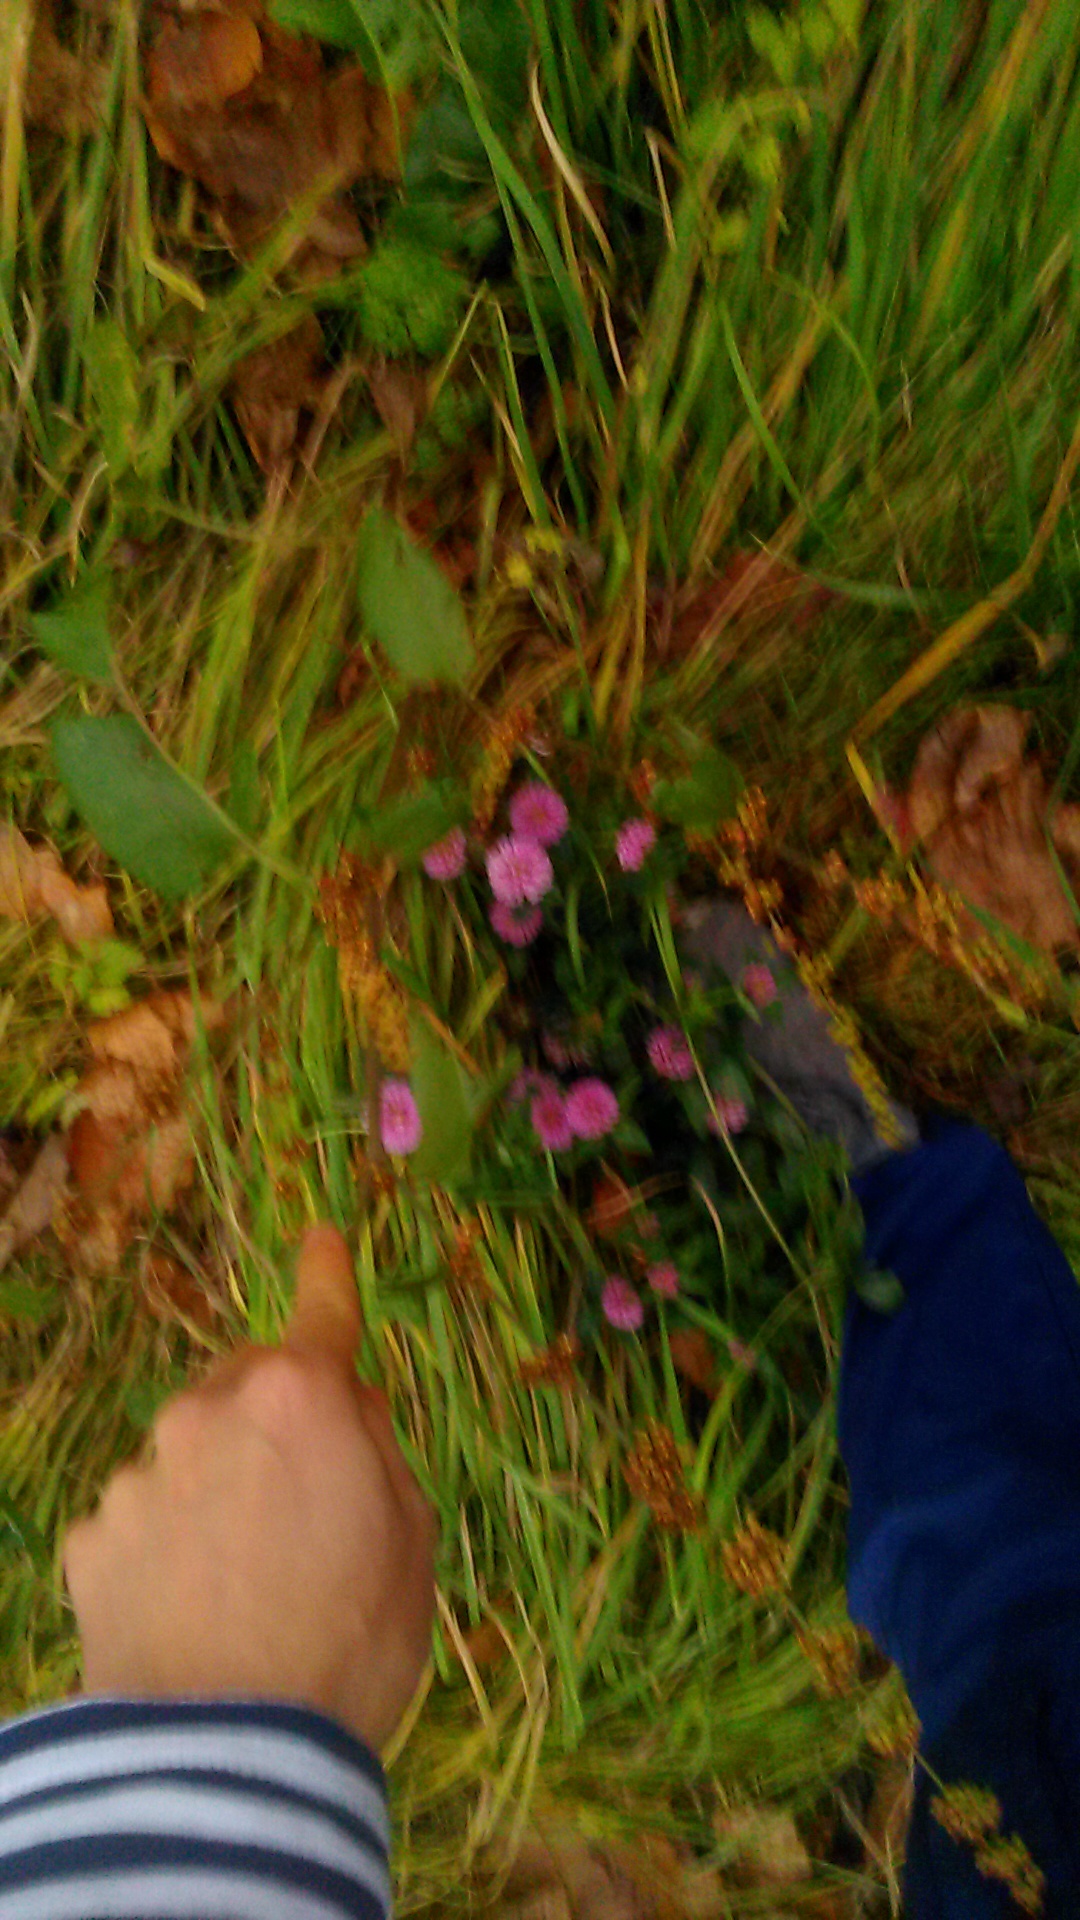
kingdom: Plantae
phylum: Tracheophyta
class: Magnoliopsida
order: Caryophyllales
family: Polygonaceae
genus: Rumex
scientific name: Rumex obtusifolius
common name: Bitter dock
